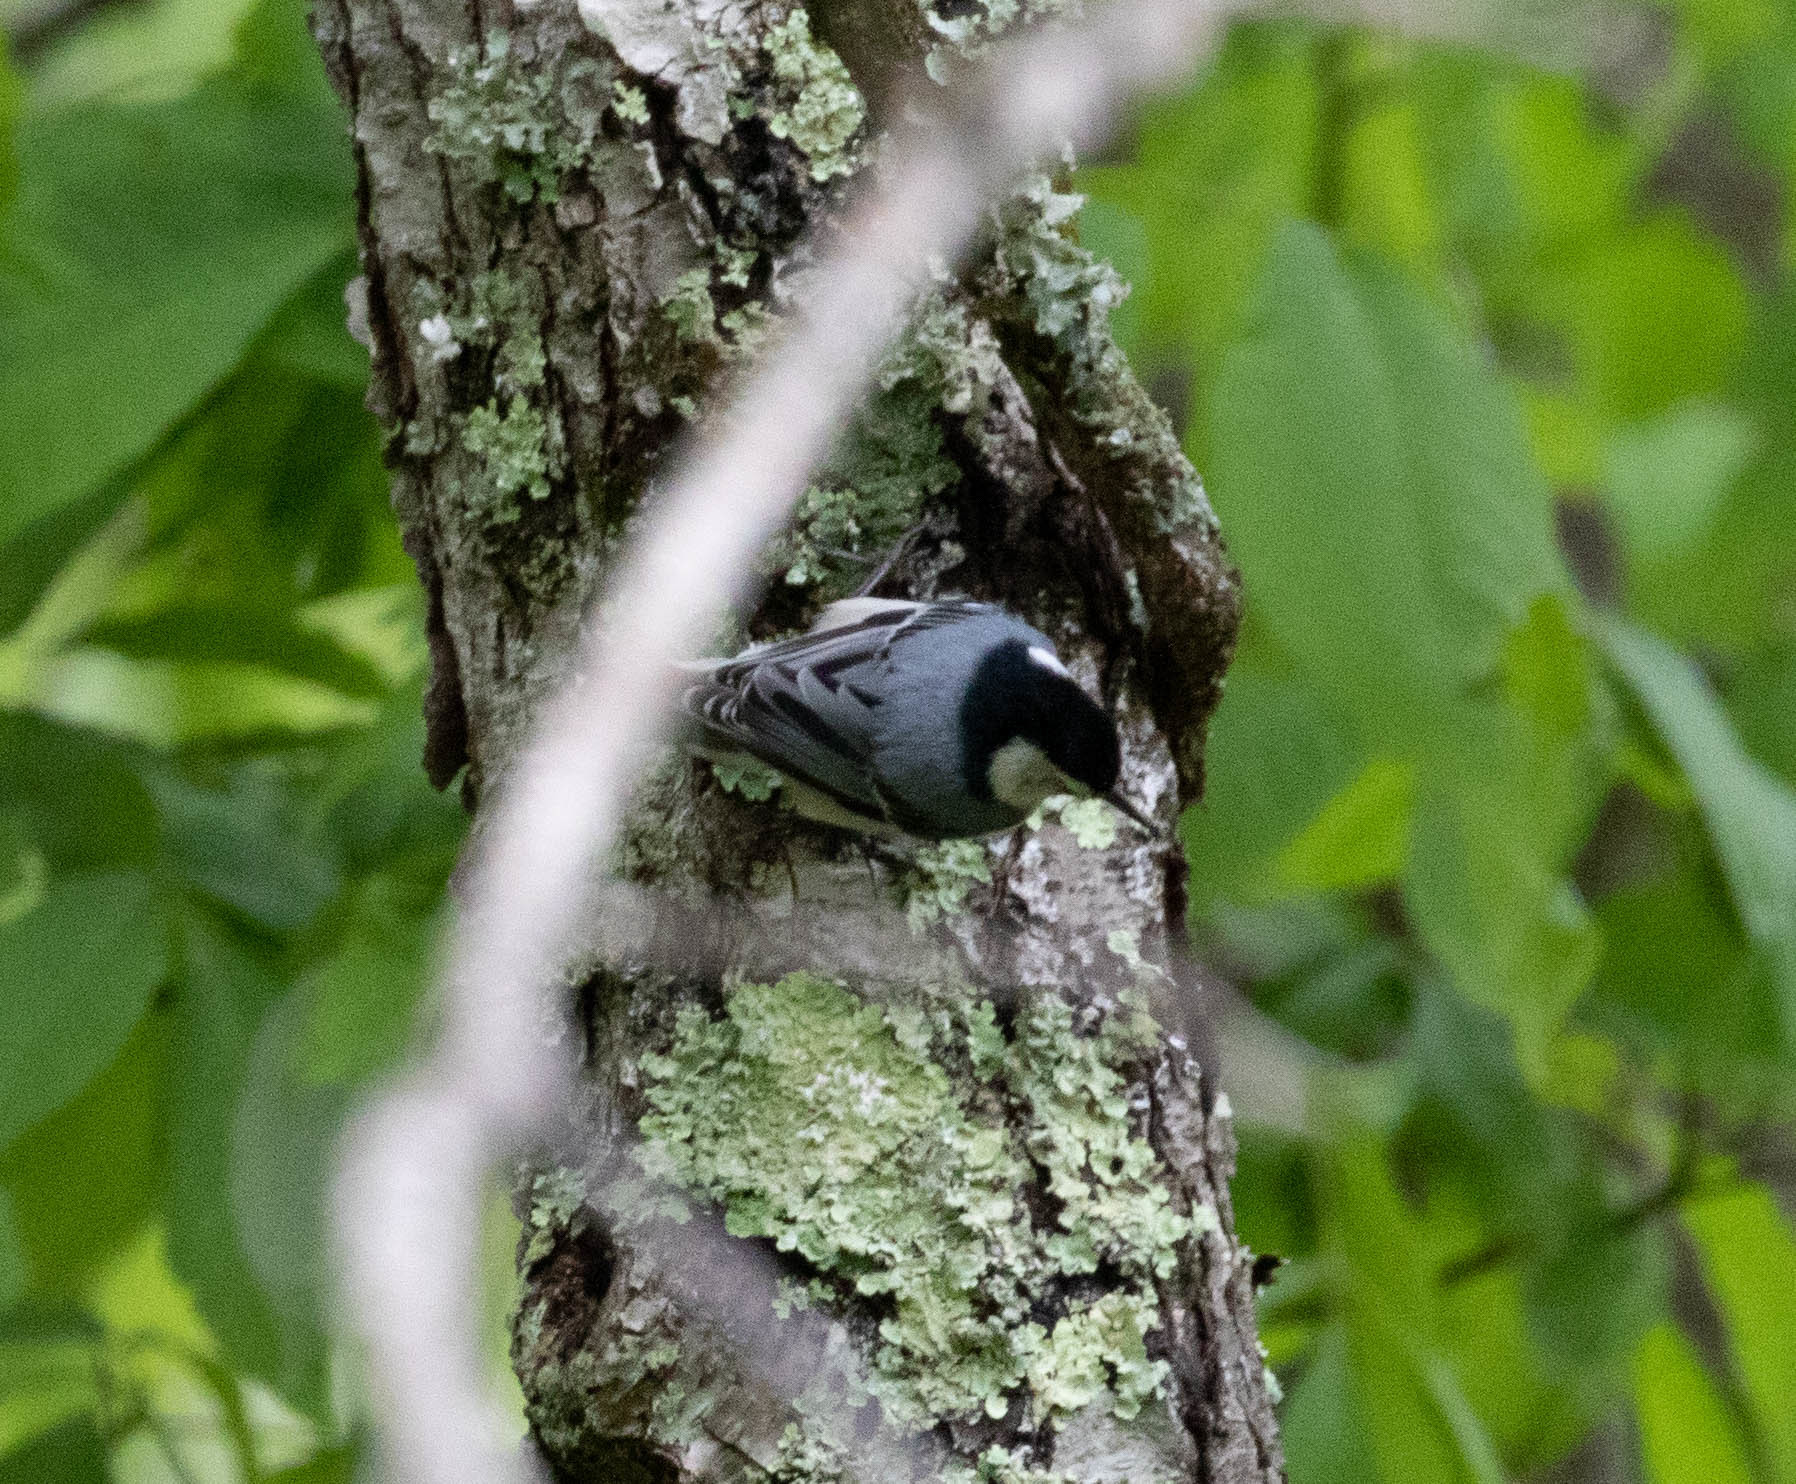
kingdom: Animalia
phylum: Chordata
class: Aves
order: Passeriformes
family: Sittidae
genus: Sitta
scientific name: Sitta carolinensis
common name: White-breasted nuthatch
